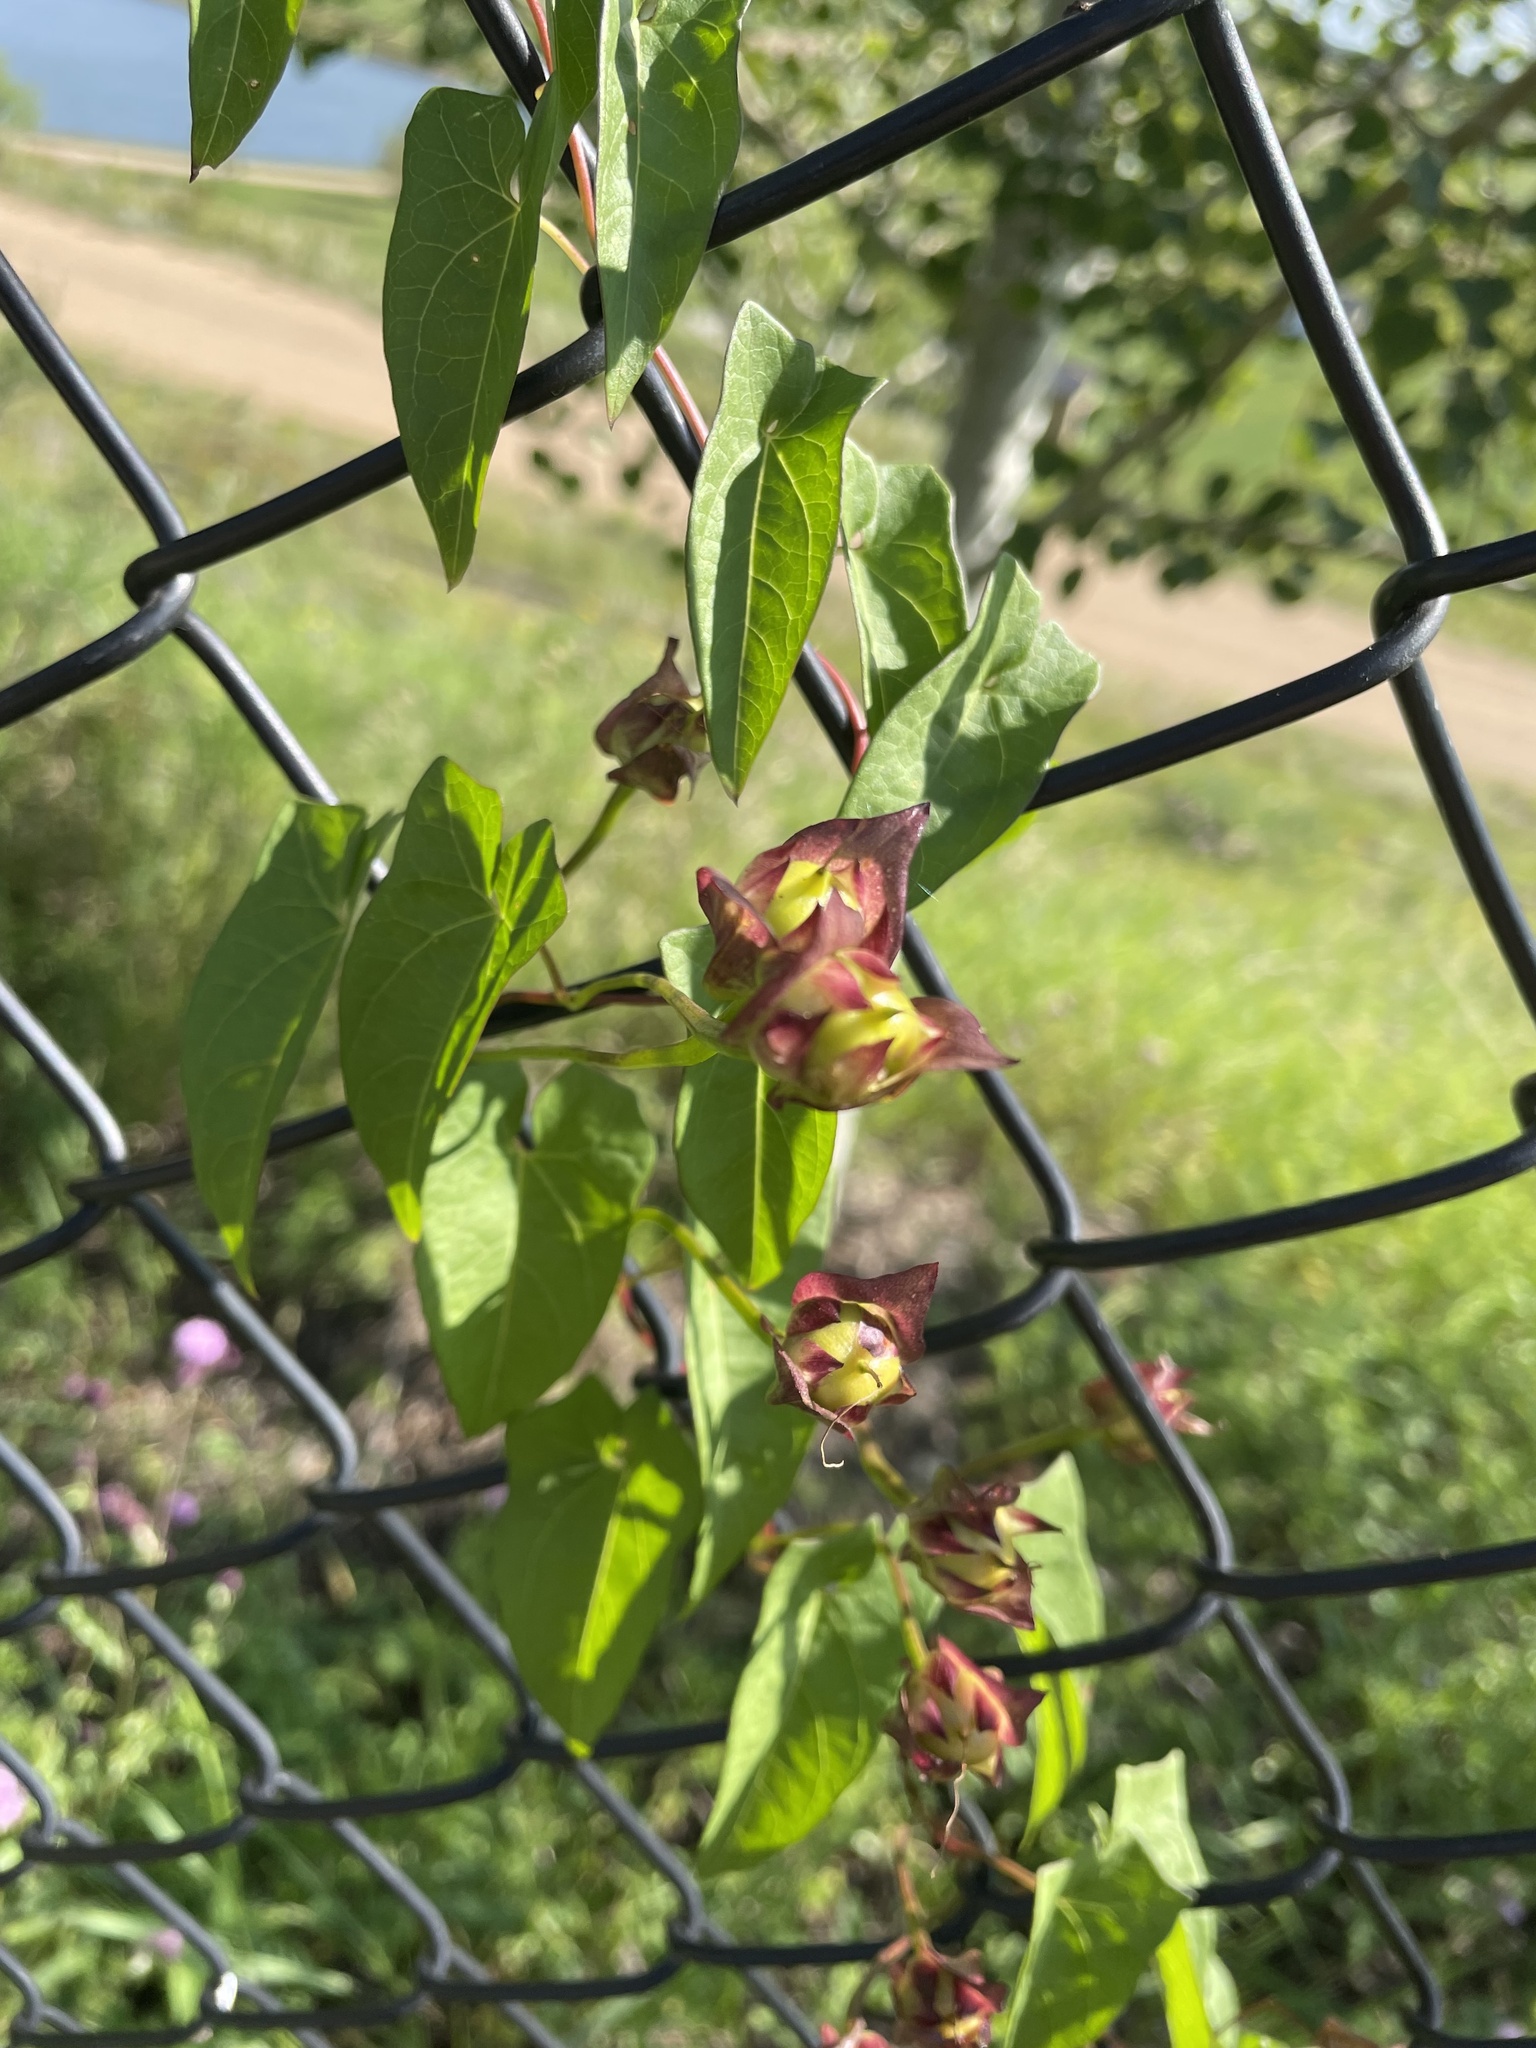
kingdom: Plantae
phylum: Tracheophyta
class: Magnoliopsida
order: Solanales
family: Convolvulaceae
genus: Calystegia
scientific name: Calystegia sepium
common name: Hedge bindweed
